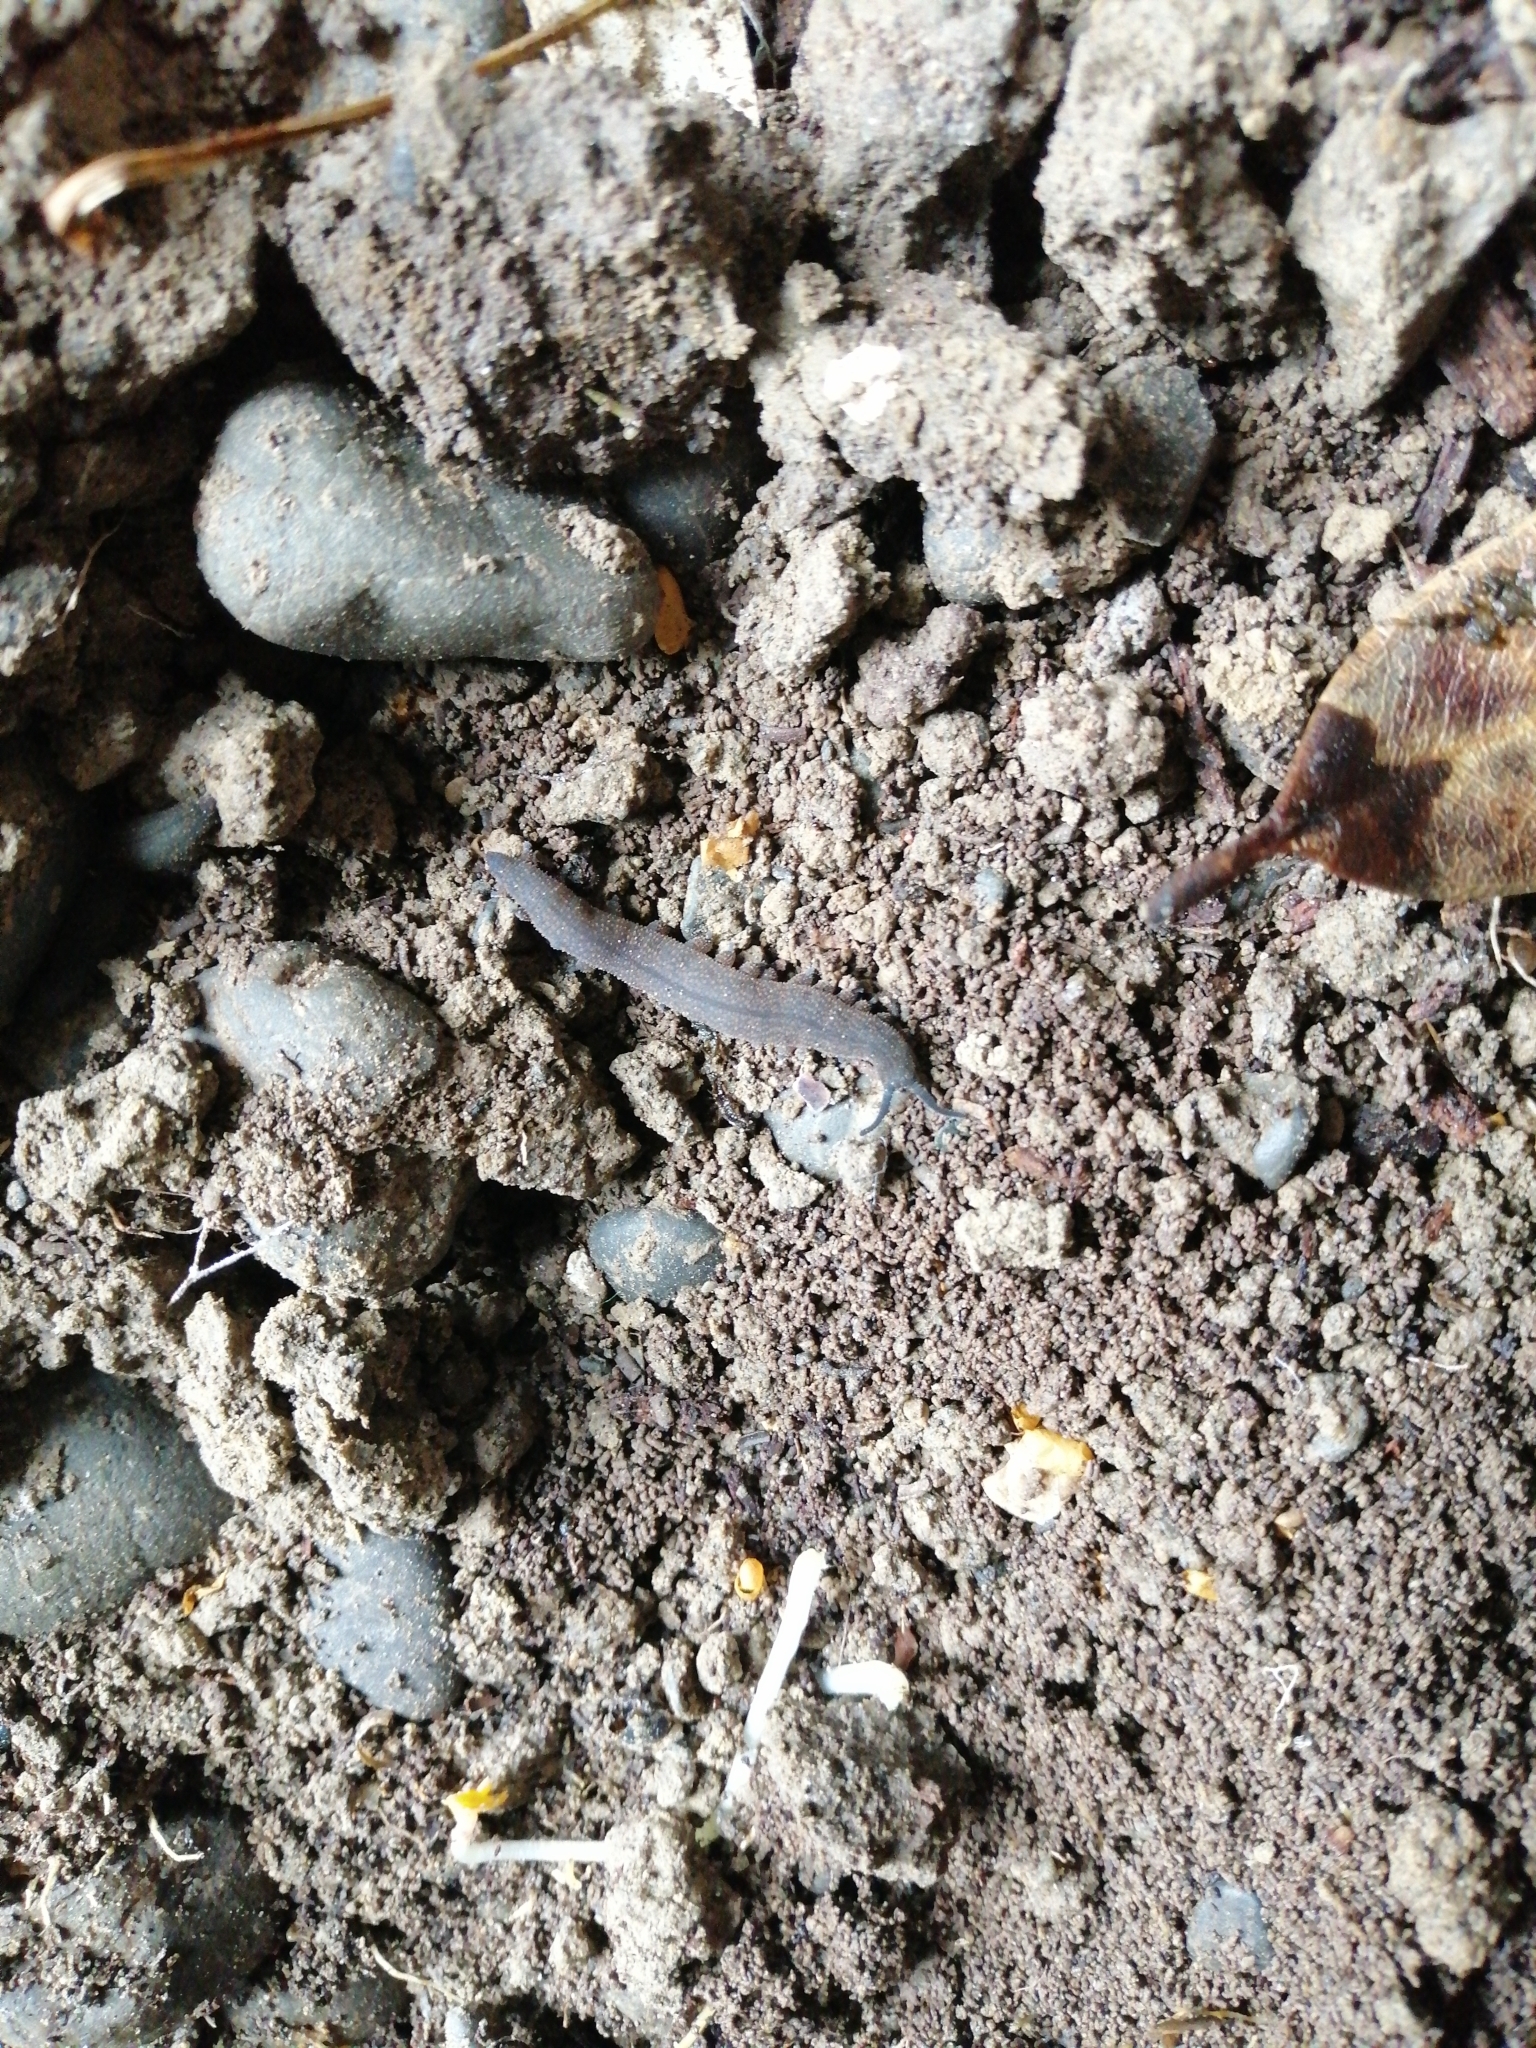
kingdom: Animalia
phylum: Onychophora
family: Peripatopsidae
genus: Peripatoides
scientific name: Peripatoides novaezealandiae
